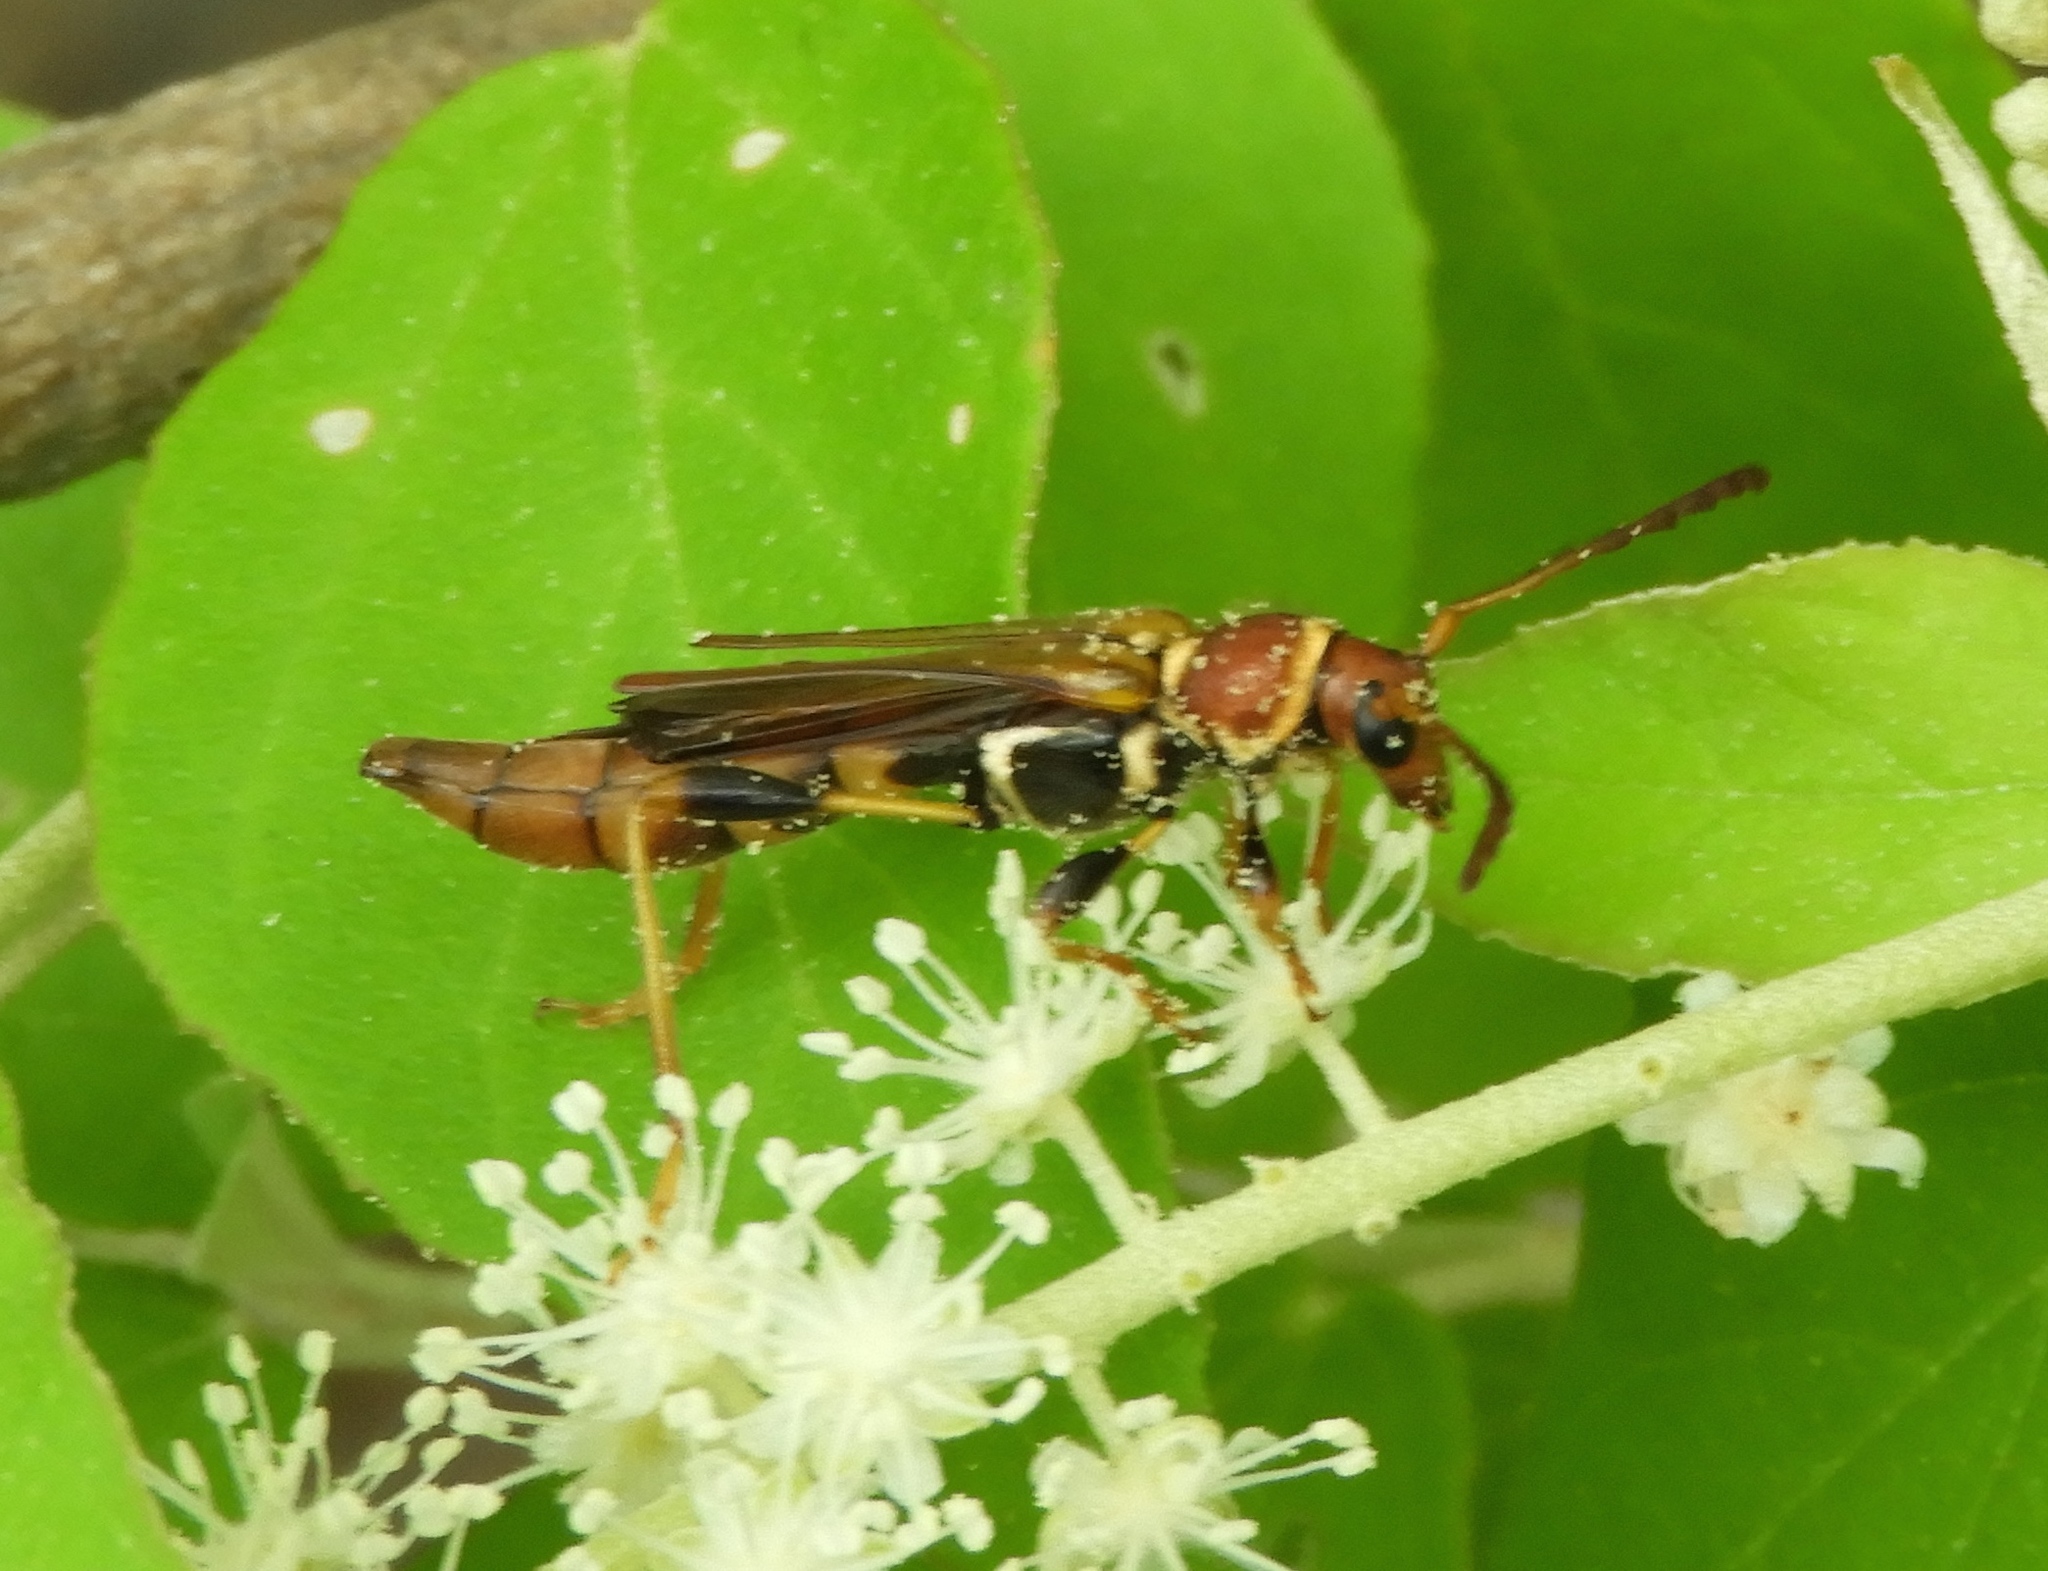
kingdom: Animalia
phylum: Arthropoda
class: Insecta
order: Coleoptera
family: Cerambycidae
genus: Odontocera
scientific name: Odontocera aurocincta
